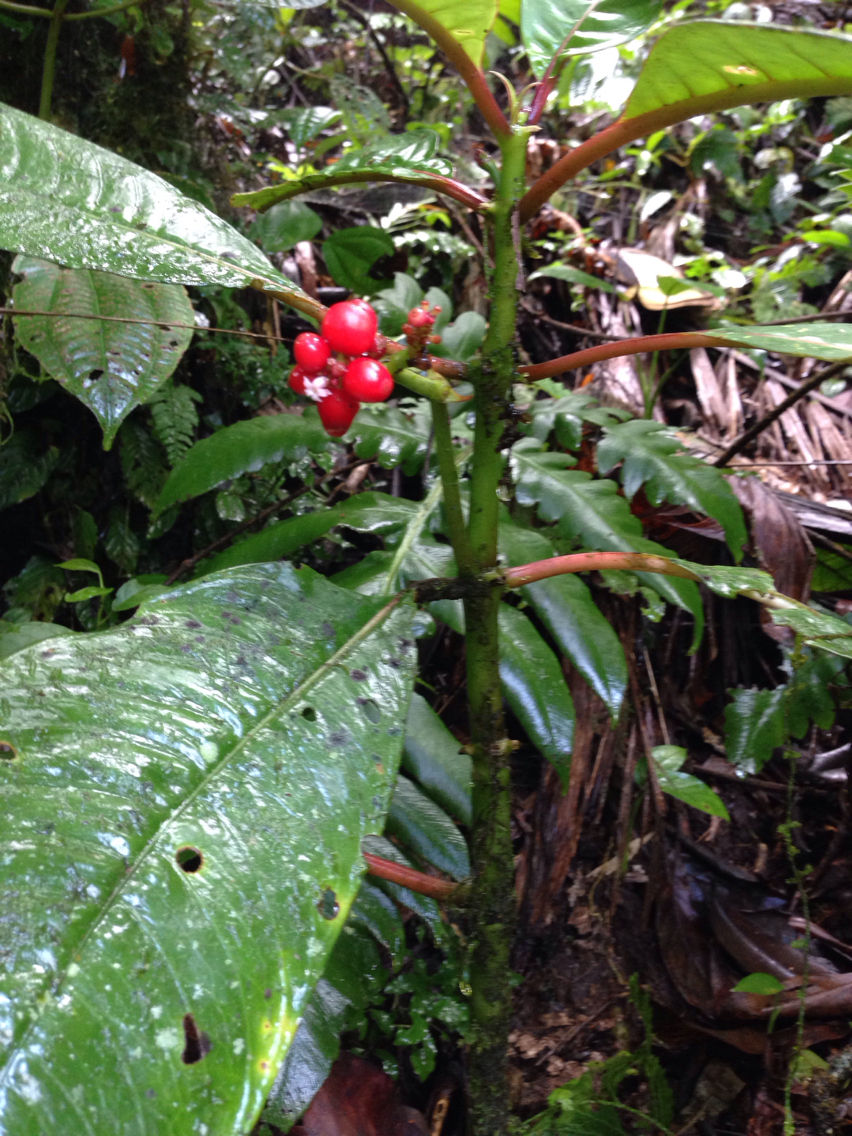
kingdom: Plantae
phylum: Tracheophyta
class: Magnoliopsida
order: Gentianales
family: Rubiaceae
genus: Notopleura
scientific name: Notopleura uliginosa
